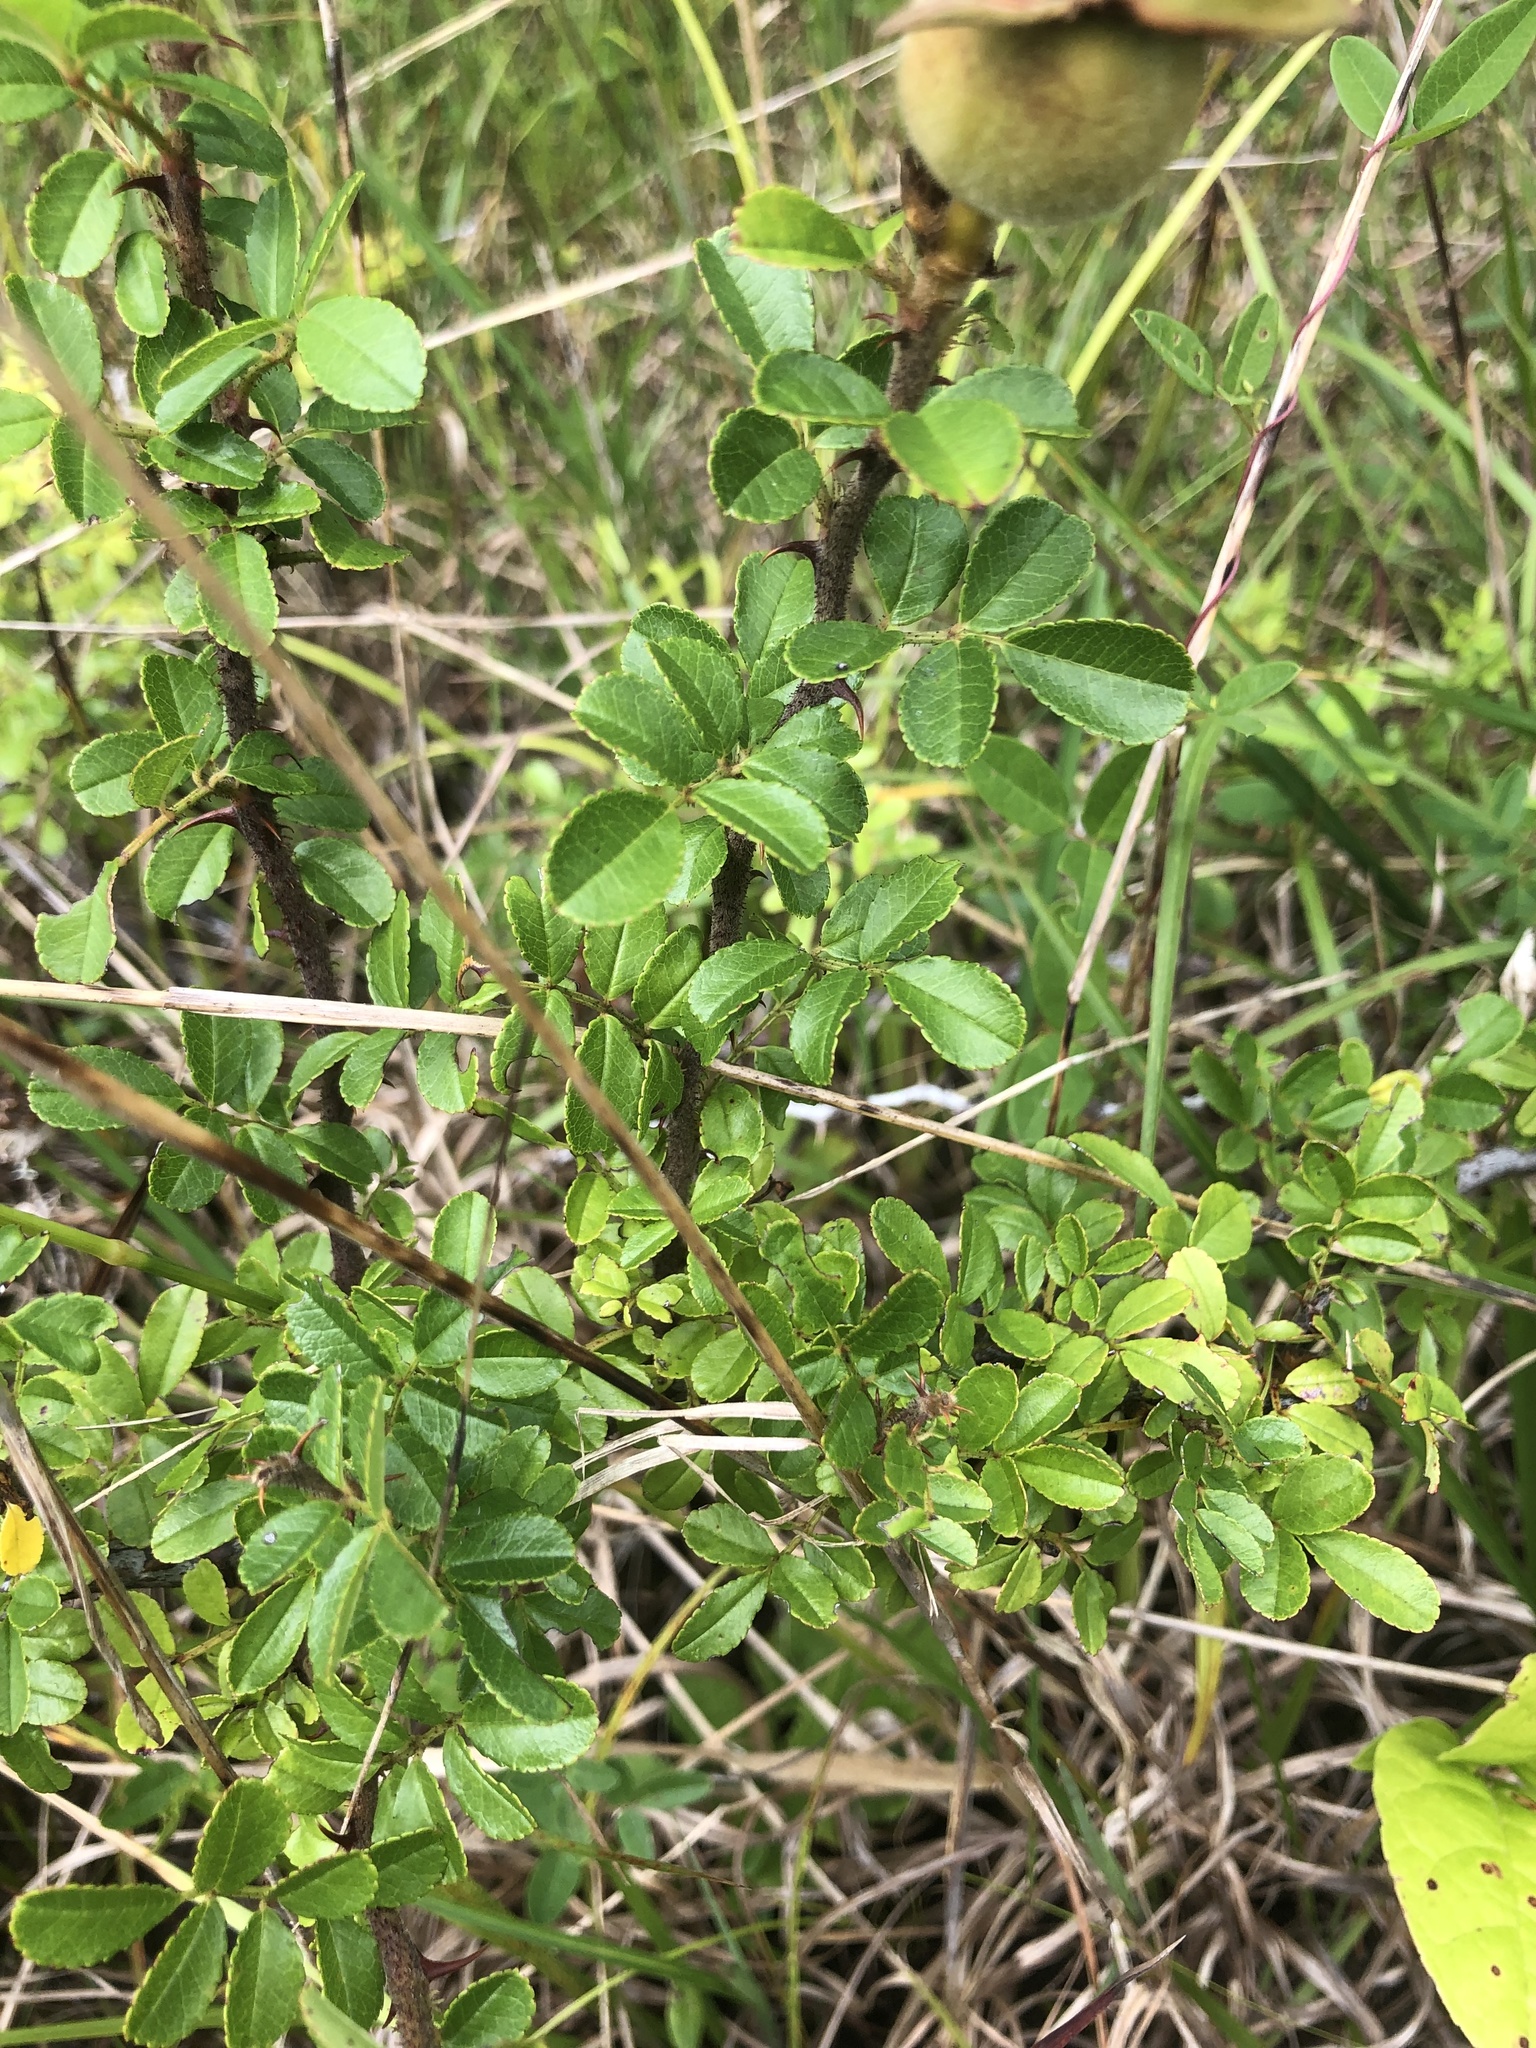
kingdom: Plantae
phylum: Tracheophyta
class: Magnoliopsida
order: Rosales
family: Rosaceae
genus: Rosa
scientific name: Rosa bracteata
